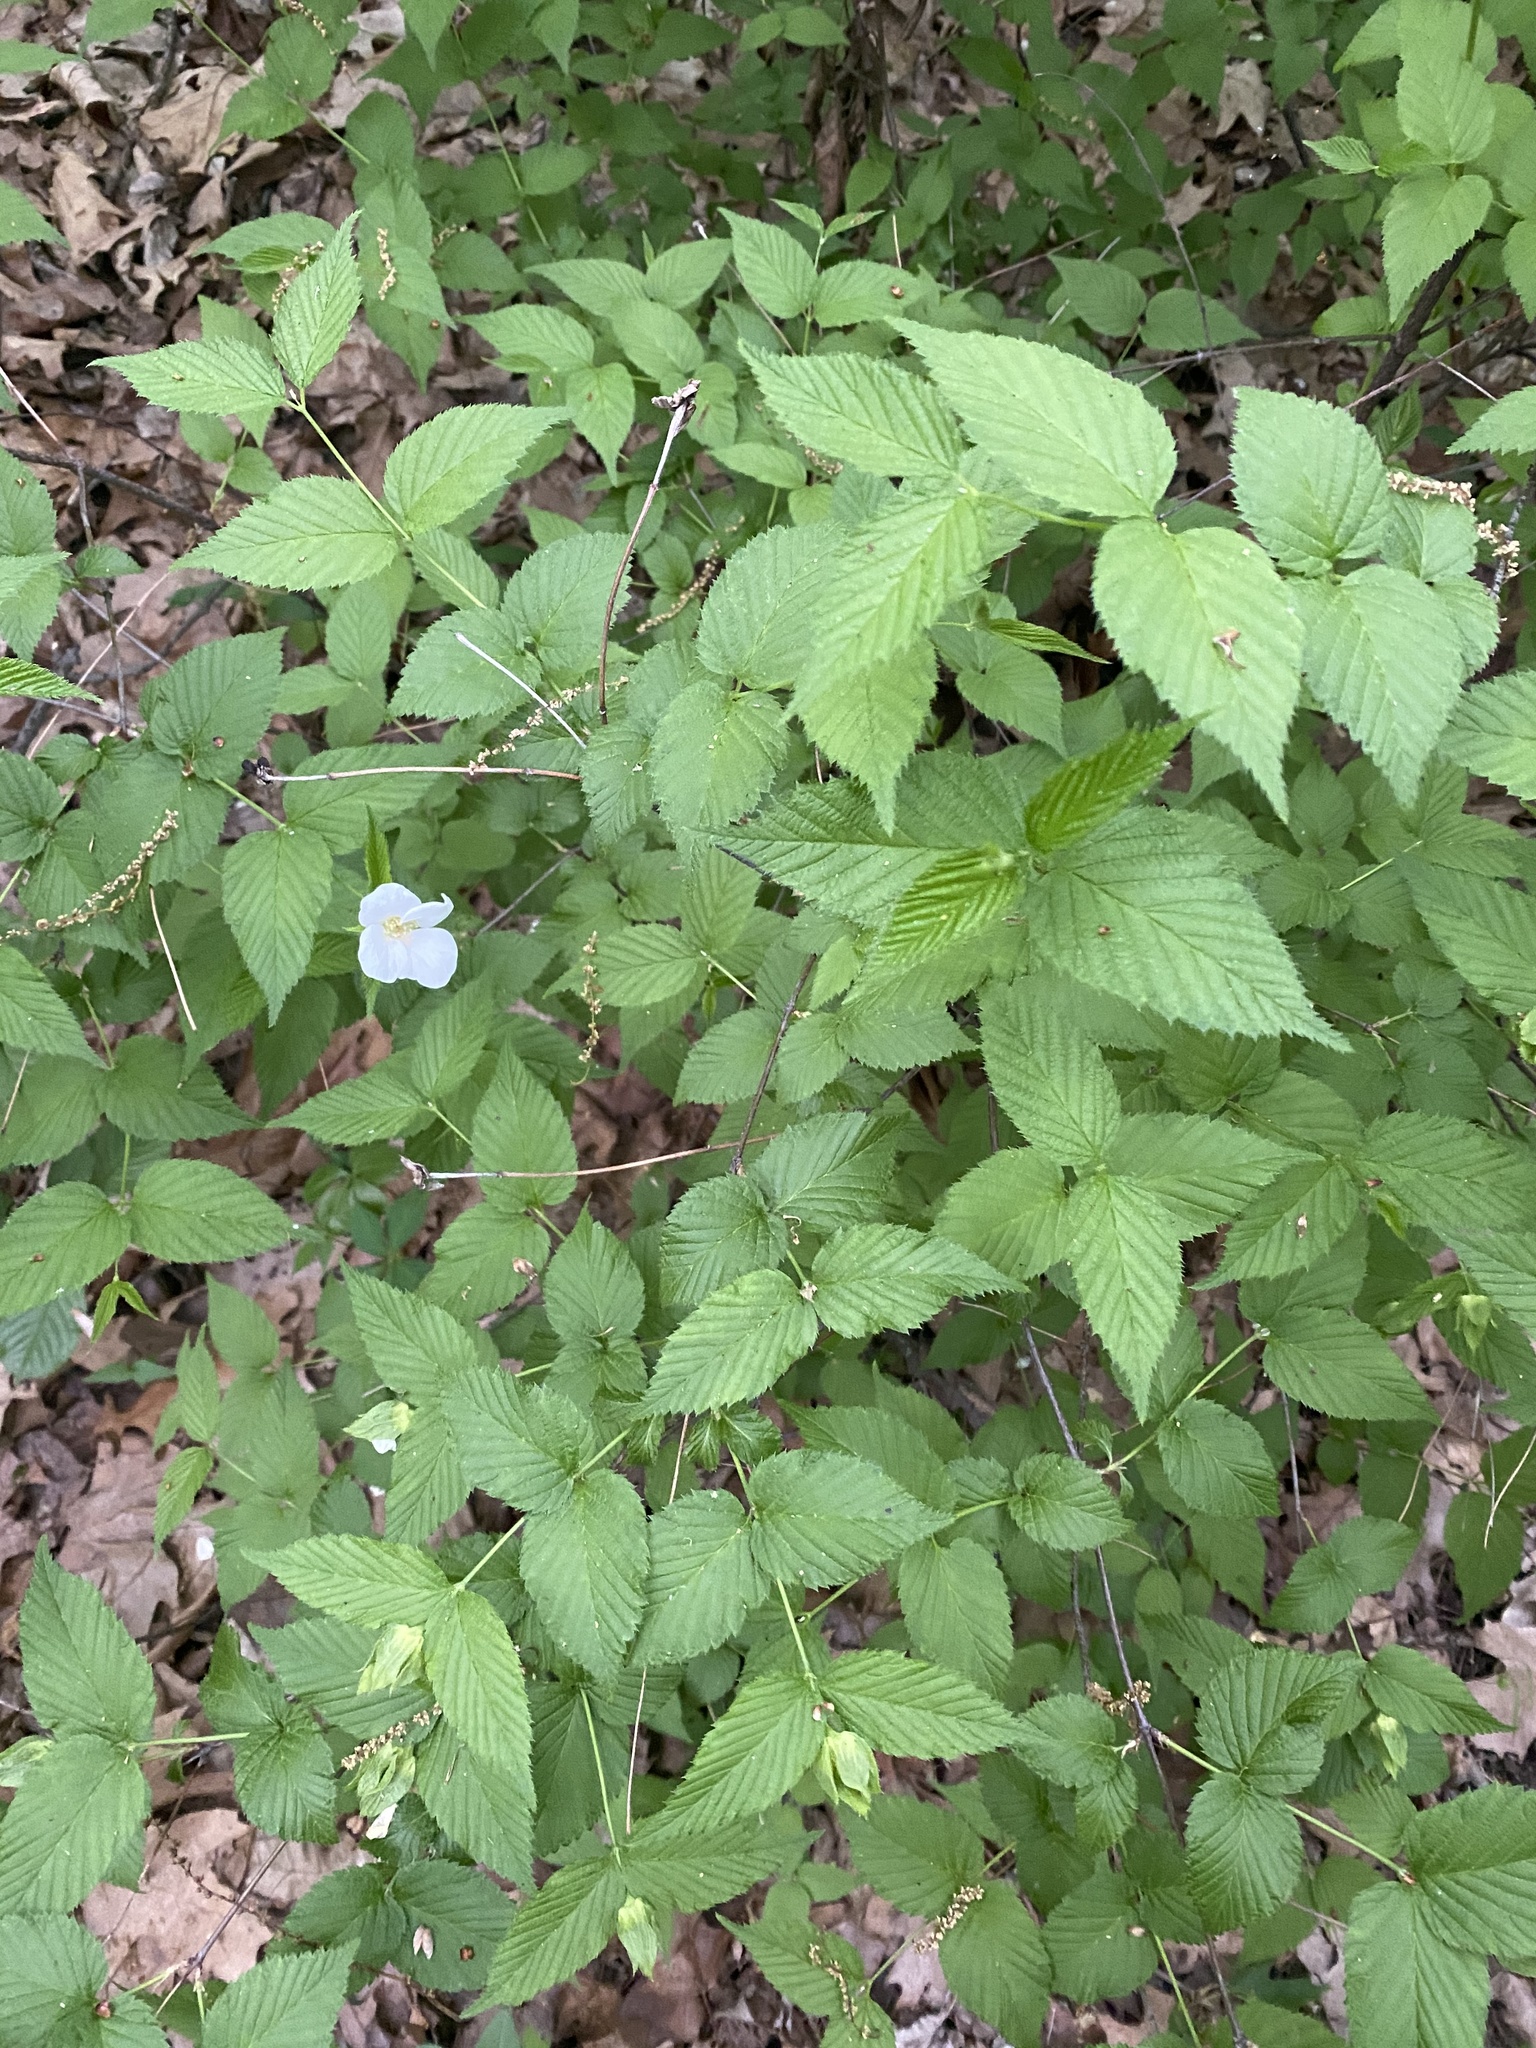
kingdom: Plantae
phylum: Tracheophyta
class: Magnoliopsida
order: Rosales
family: Rosaceae
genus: Rhodotypos
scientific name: Rhodotypos scandens
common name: Jetbead
